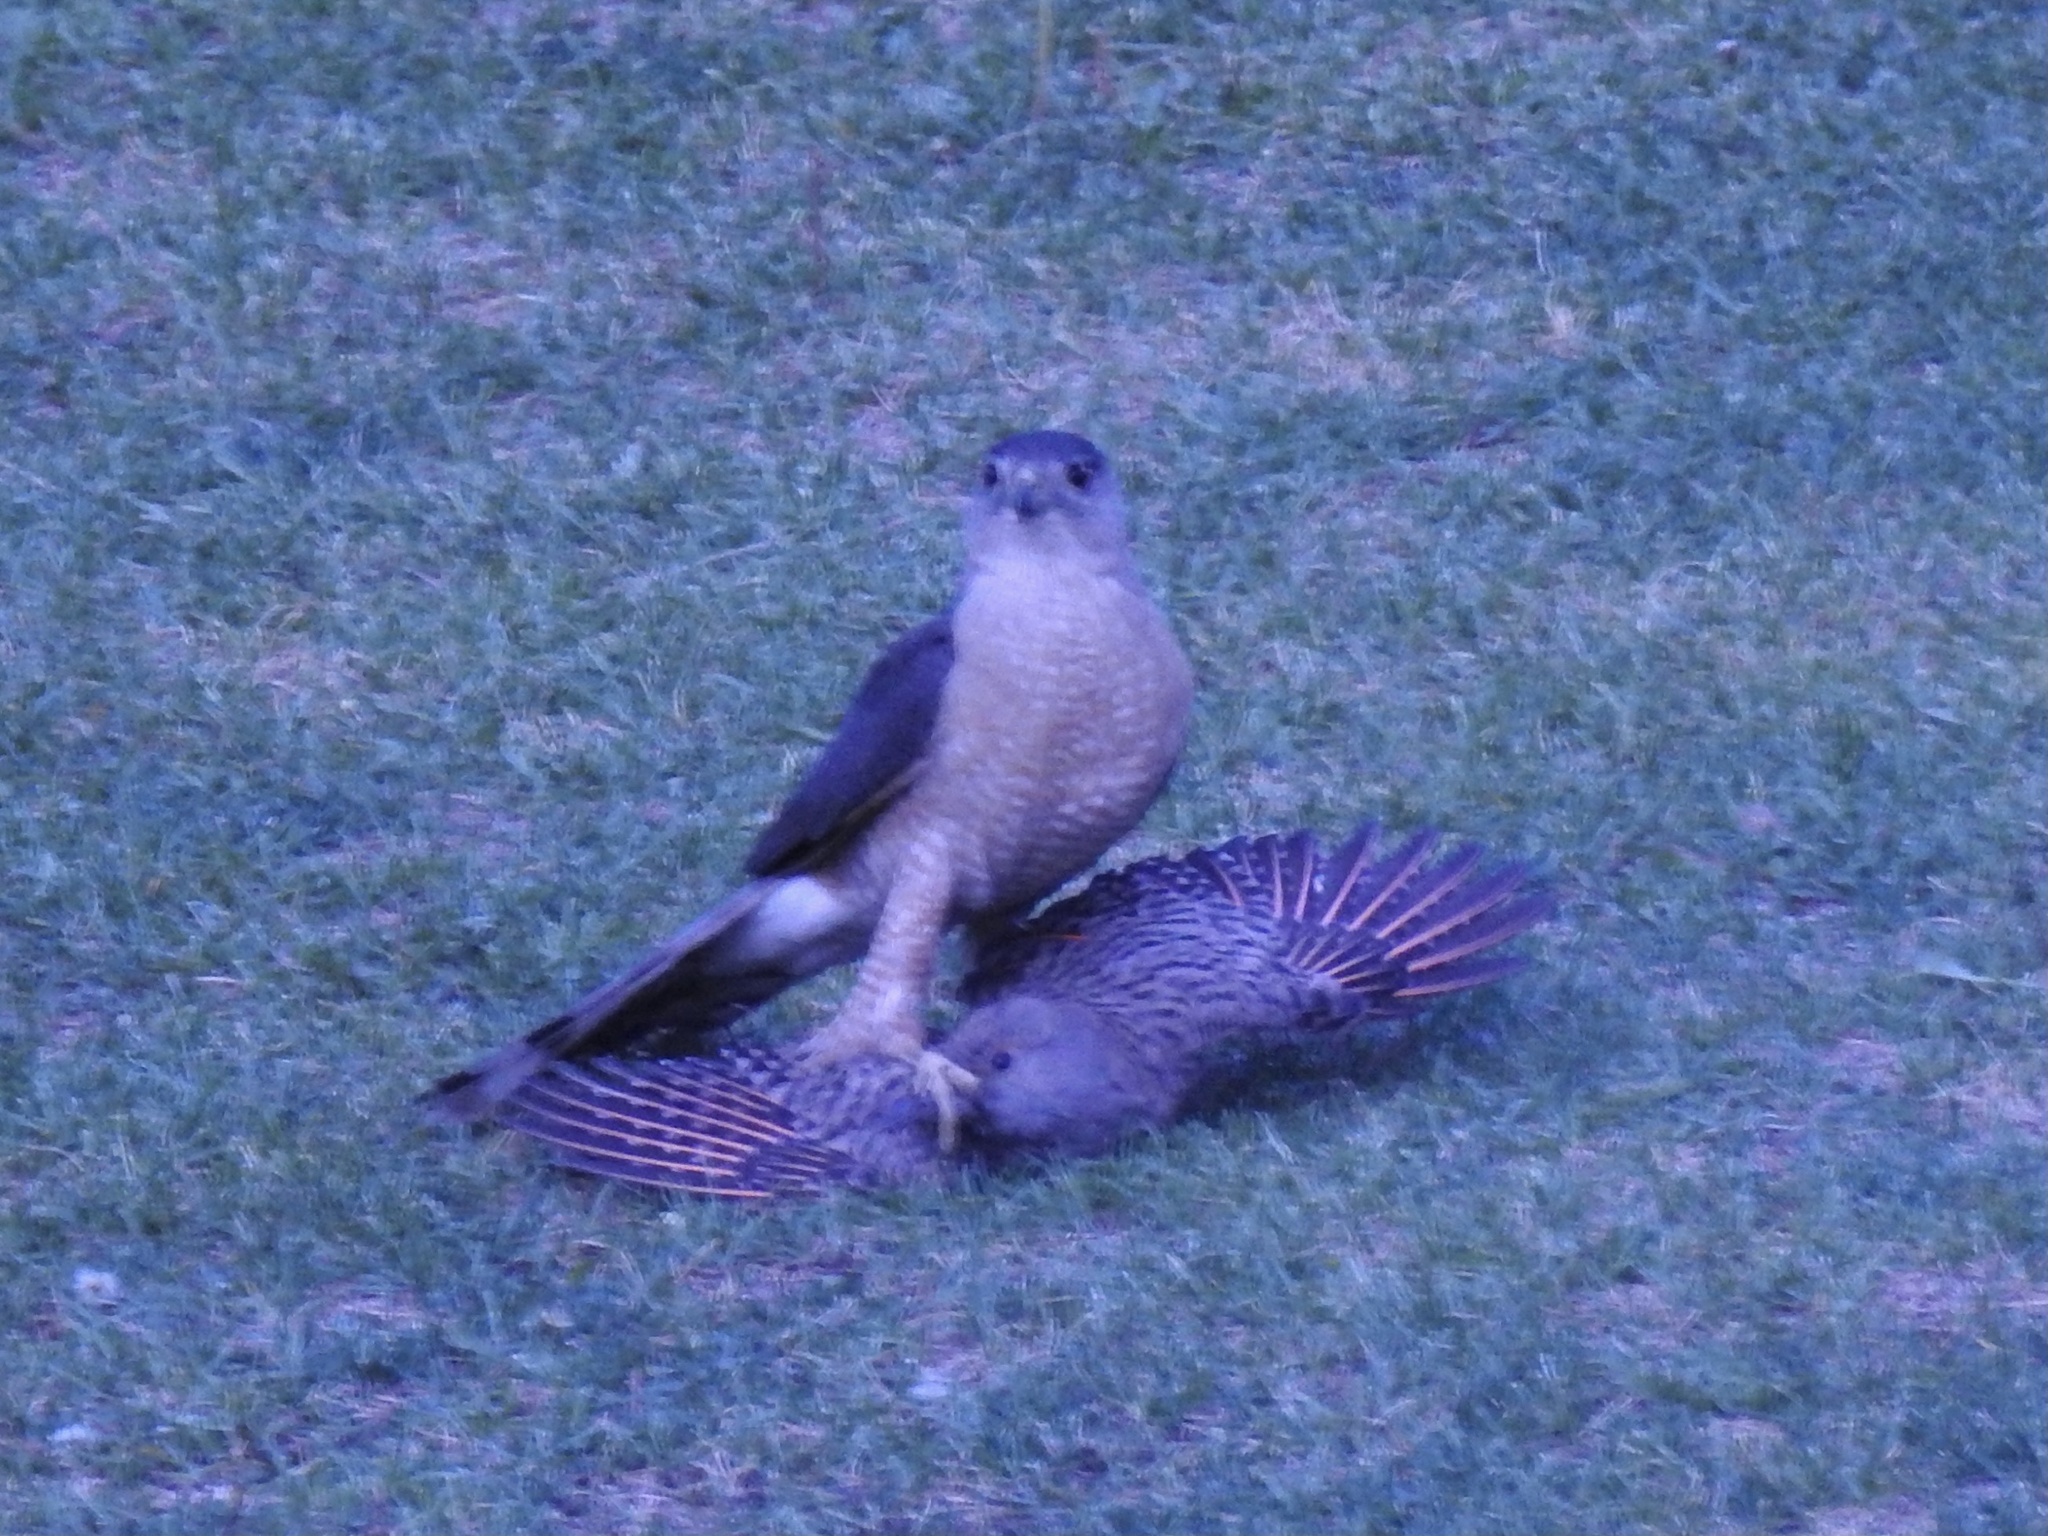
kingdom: Animalia
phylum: Chordata
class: Aves
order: Piciformes
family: Picidae
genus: Colaptes
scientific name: Colaptes auratus
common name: Northern flicker
